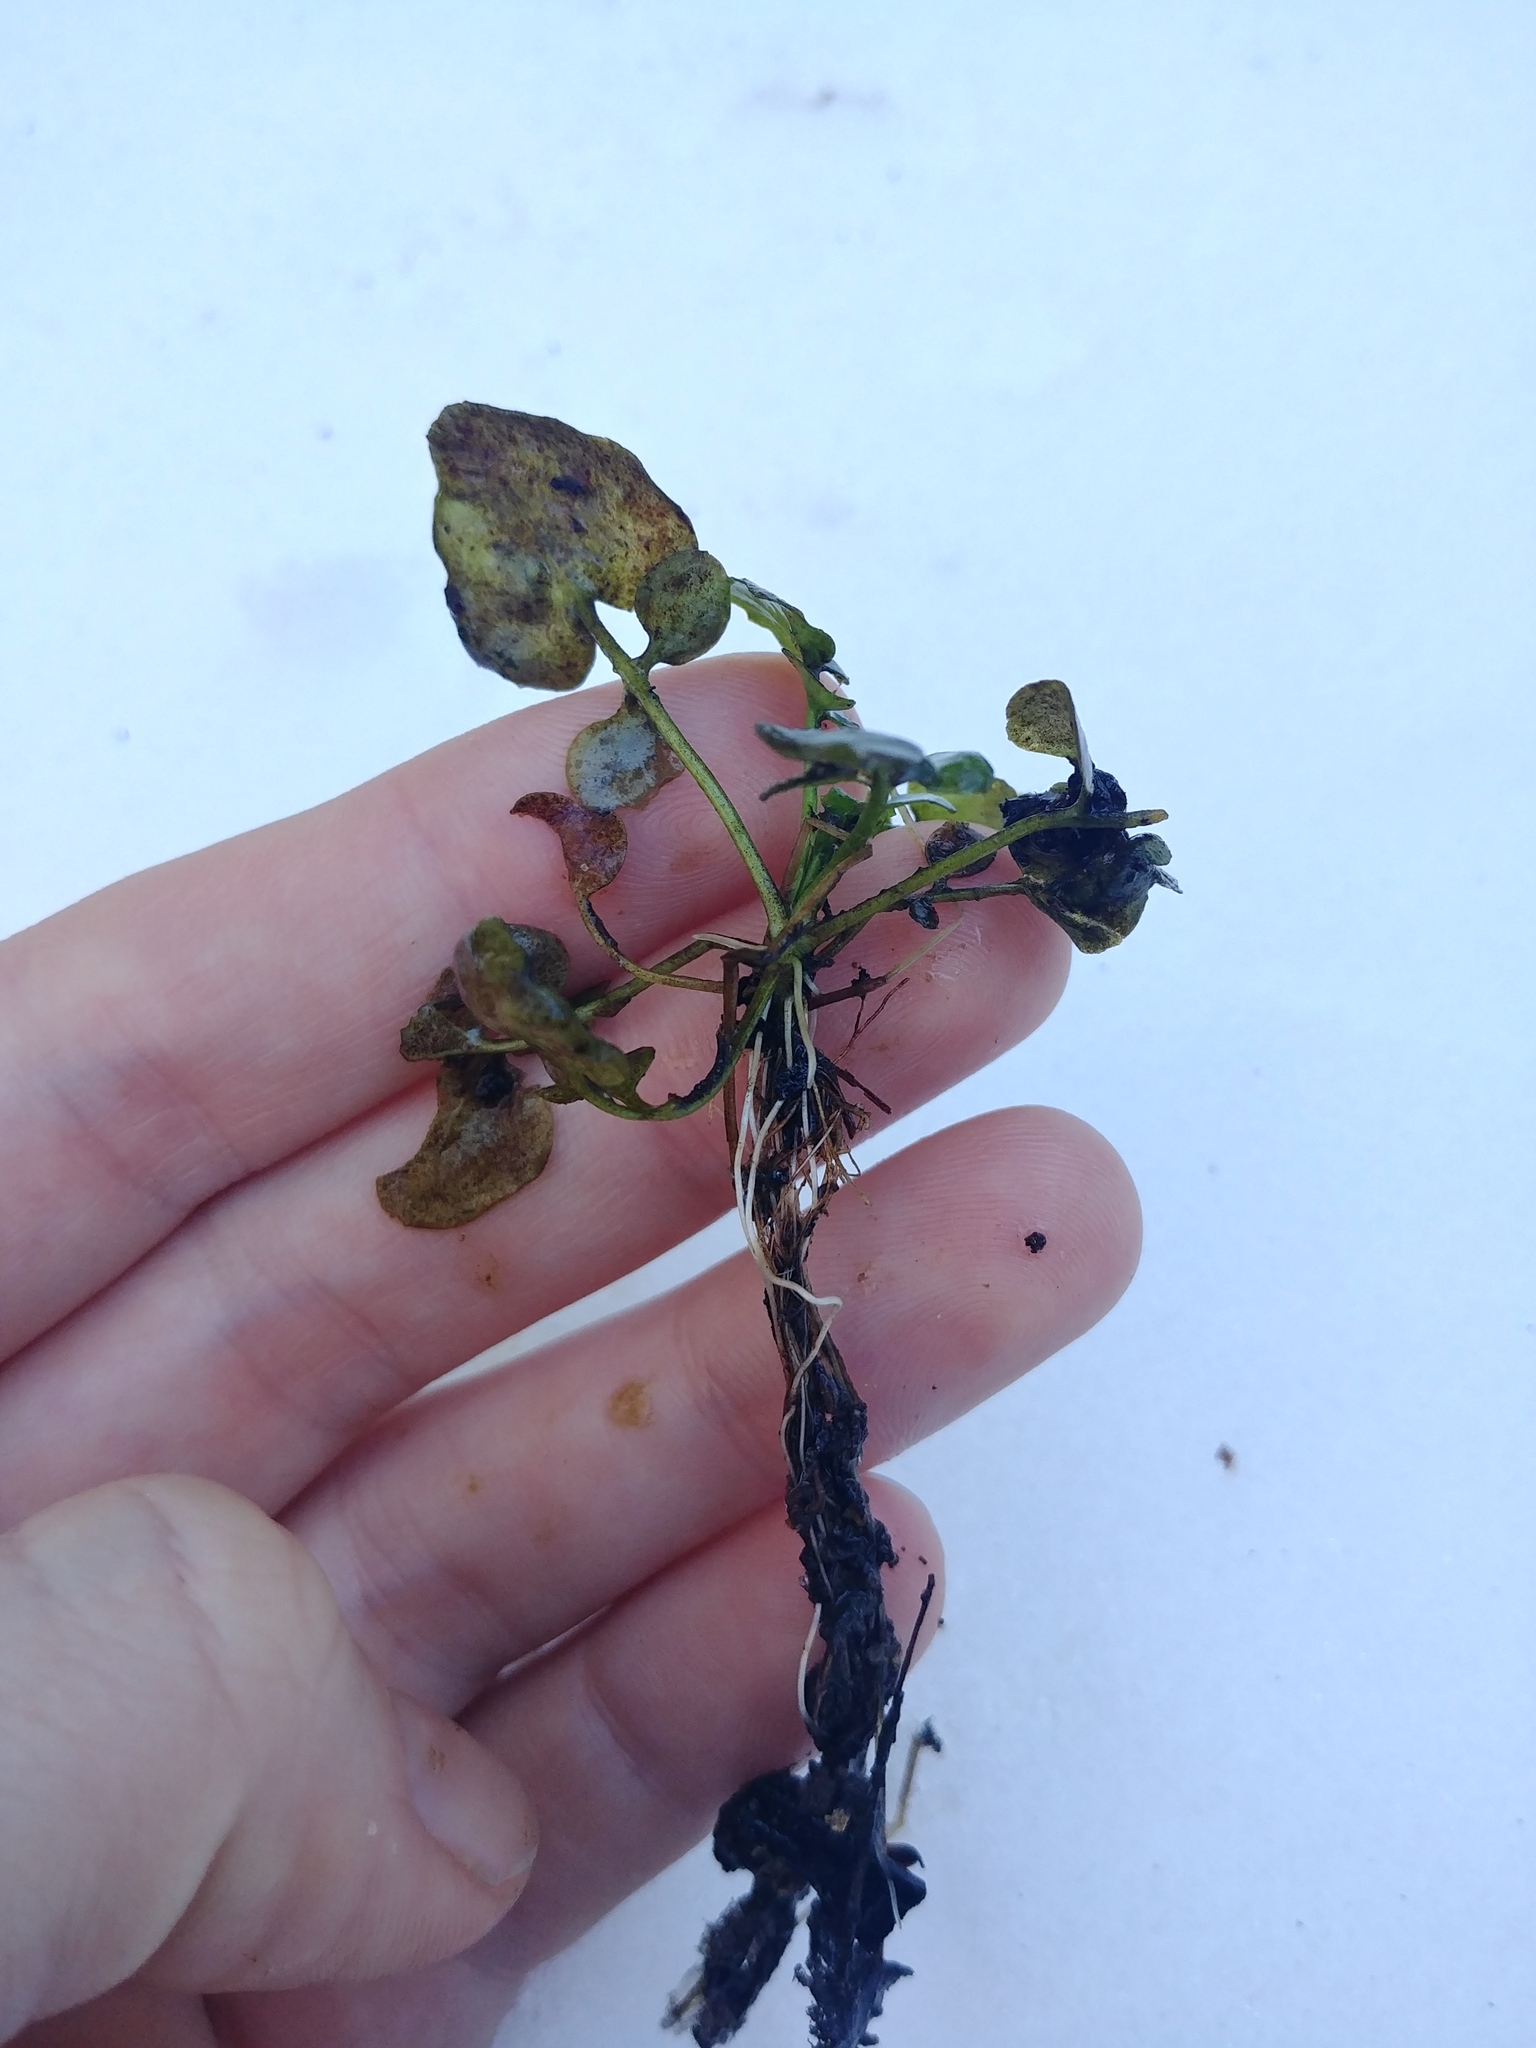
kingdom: Plantae
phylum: Tracheophyta
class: Magnoliopsida
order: Brassicales
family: Brassicaceae
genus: Cardamine
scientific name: Cardamine pensylvanica
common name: Pennsylvania bittercress
